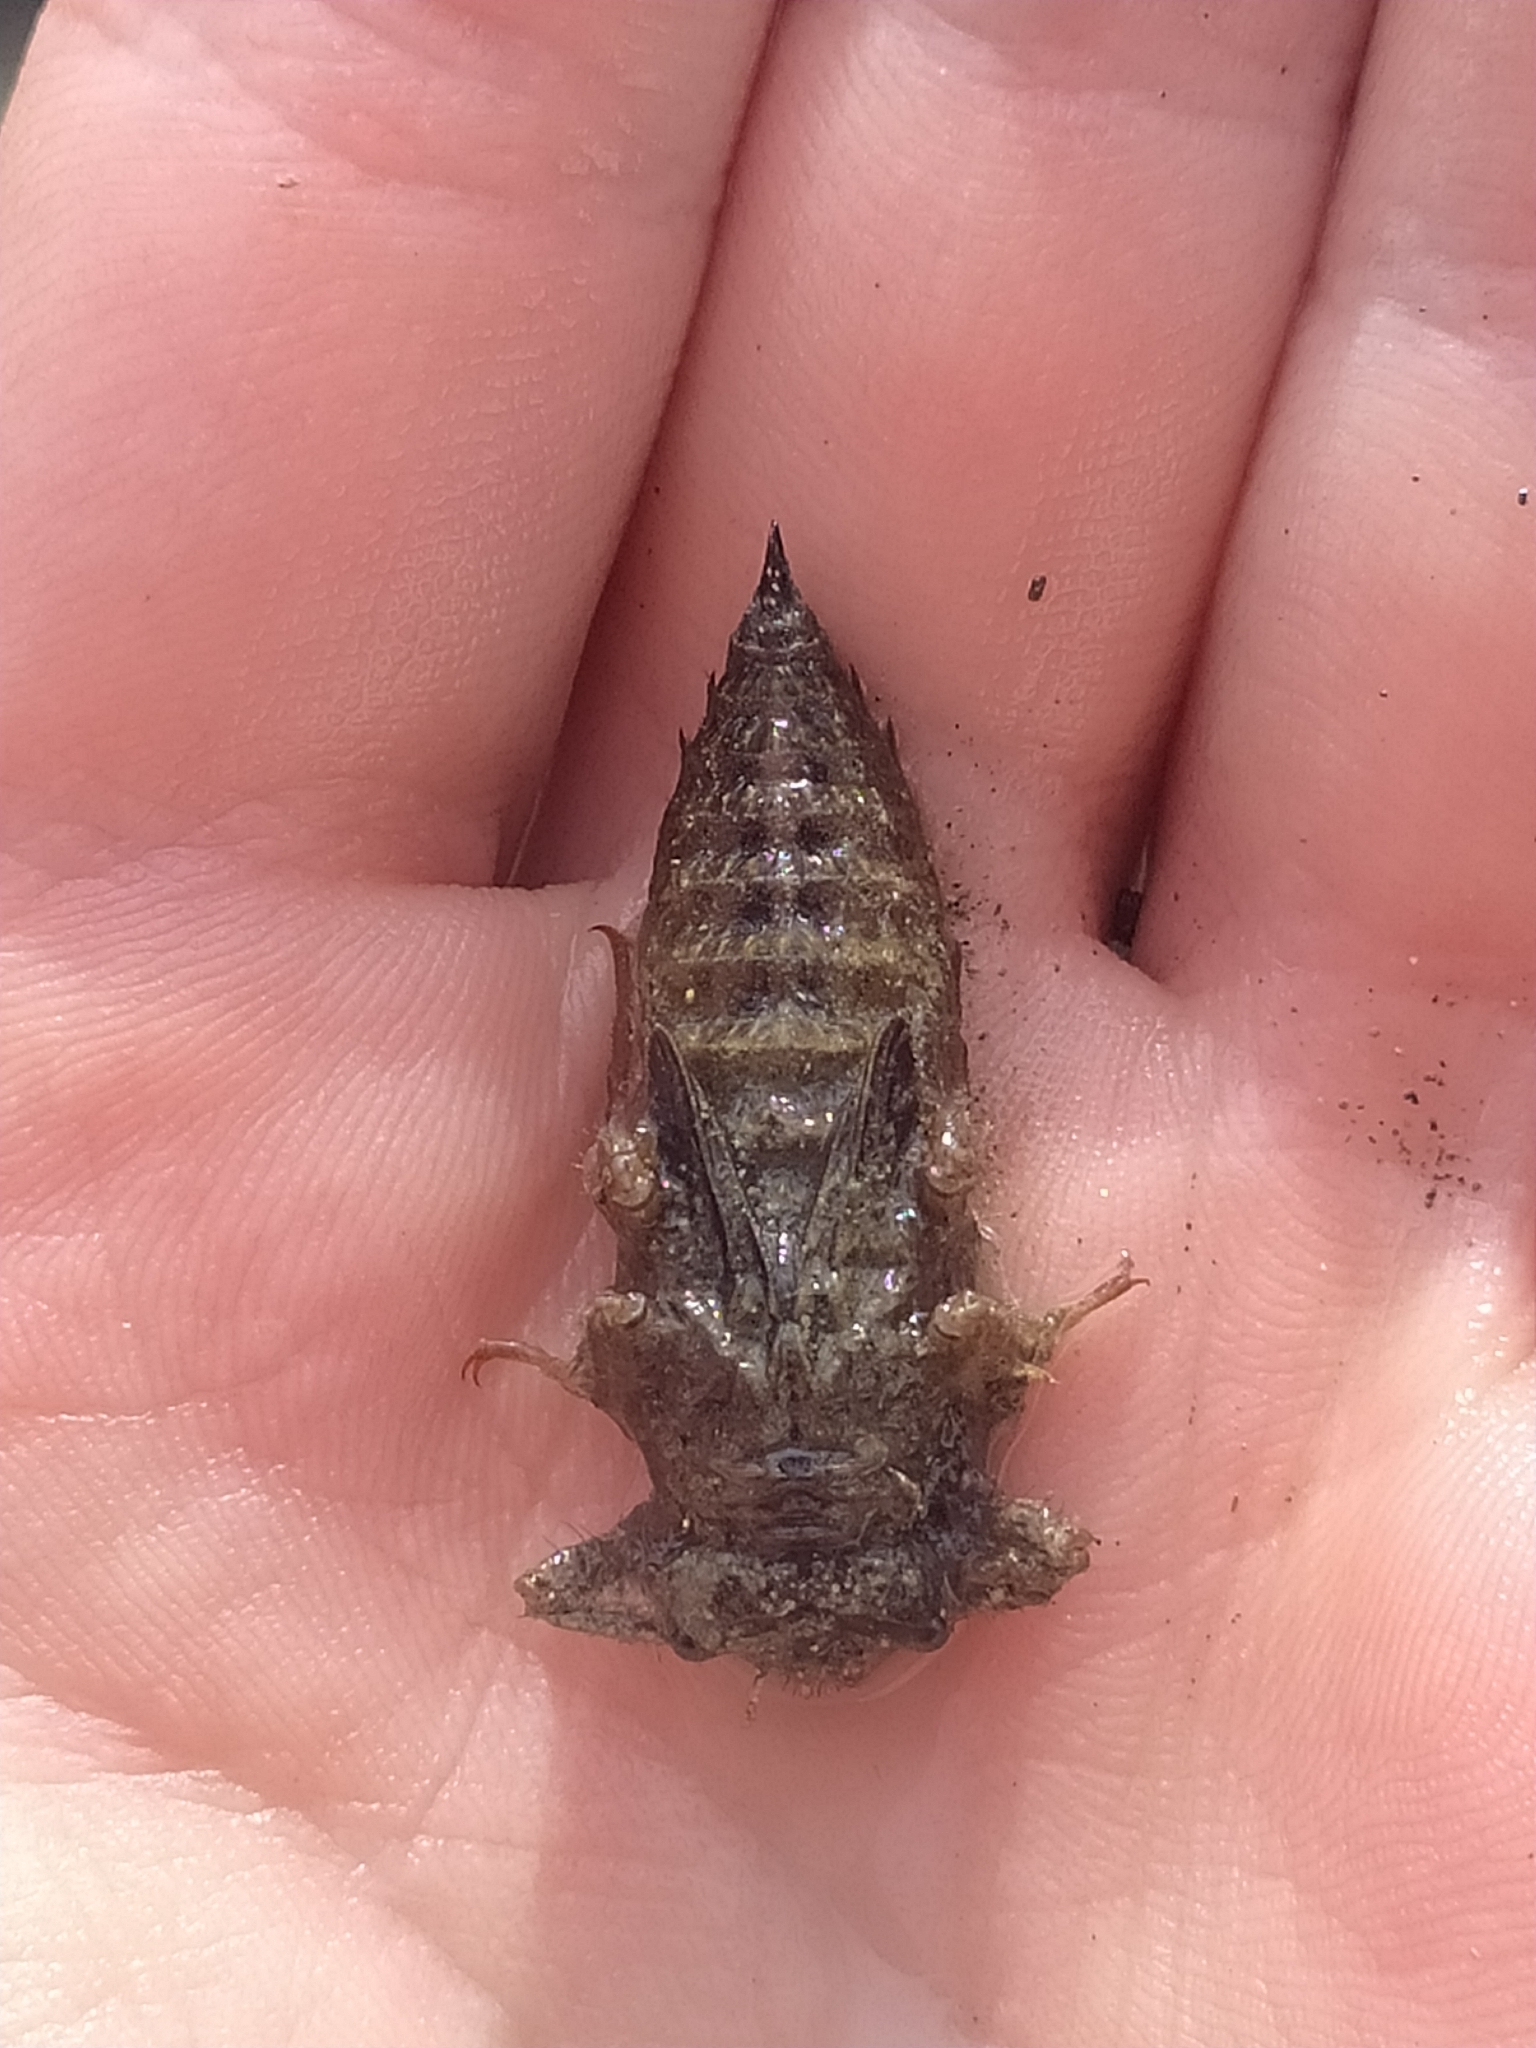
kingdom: Animalia
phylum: Arthropoda
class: Insecta
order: Odonata
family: Cordulegastridae
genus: Cordulegaster
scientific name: Cordulegaster trinacriae
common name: Italian goldenring
